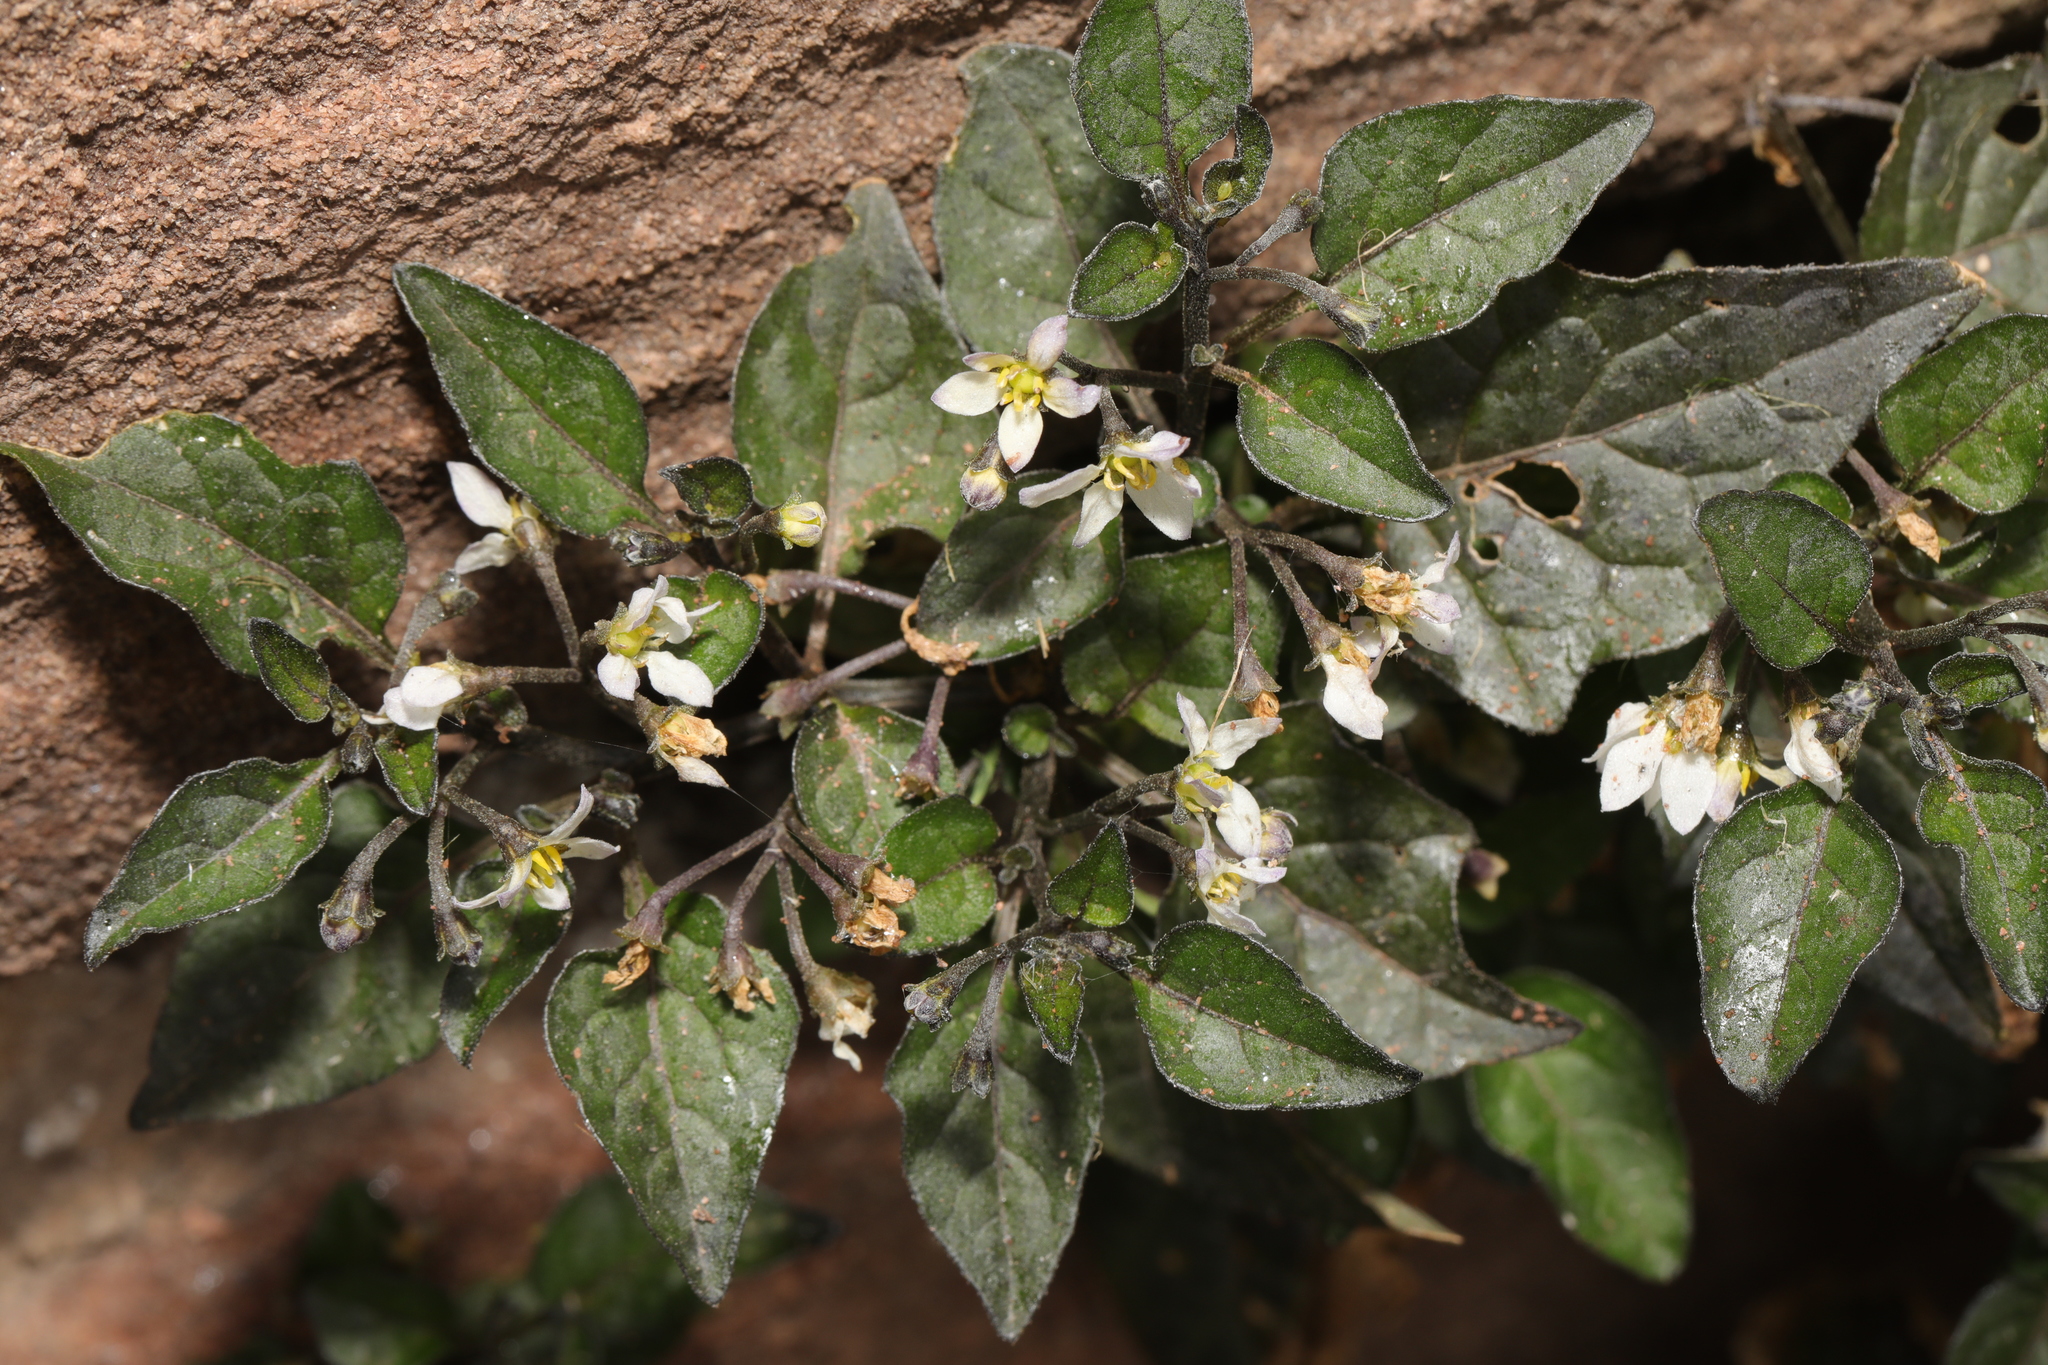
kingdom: Plantae
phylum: Tracheophyta
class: Magnoliopsida
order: Solanales
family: Solanaceae
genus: Solanum
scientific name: Solanum nigrum
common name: Black nightshade
